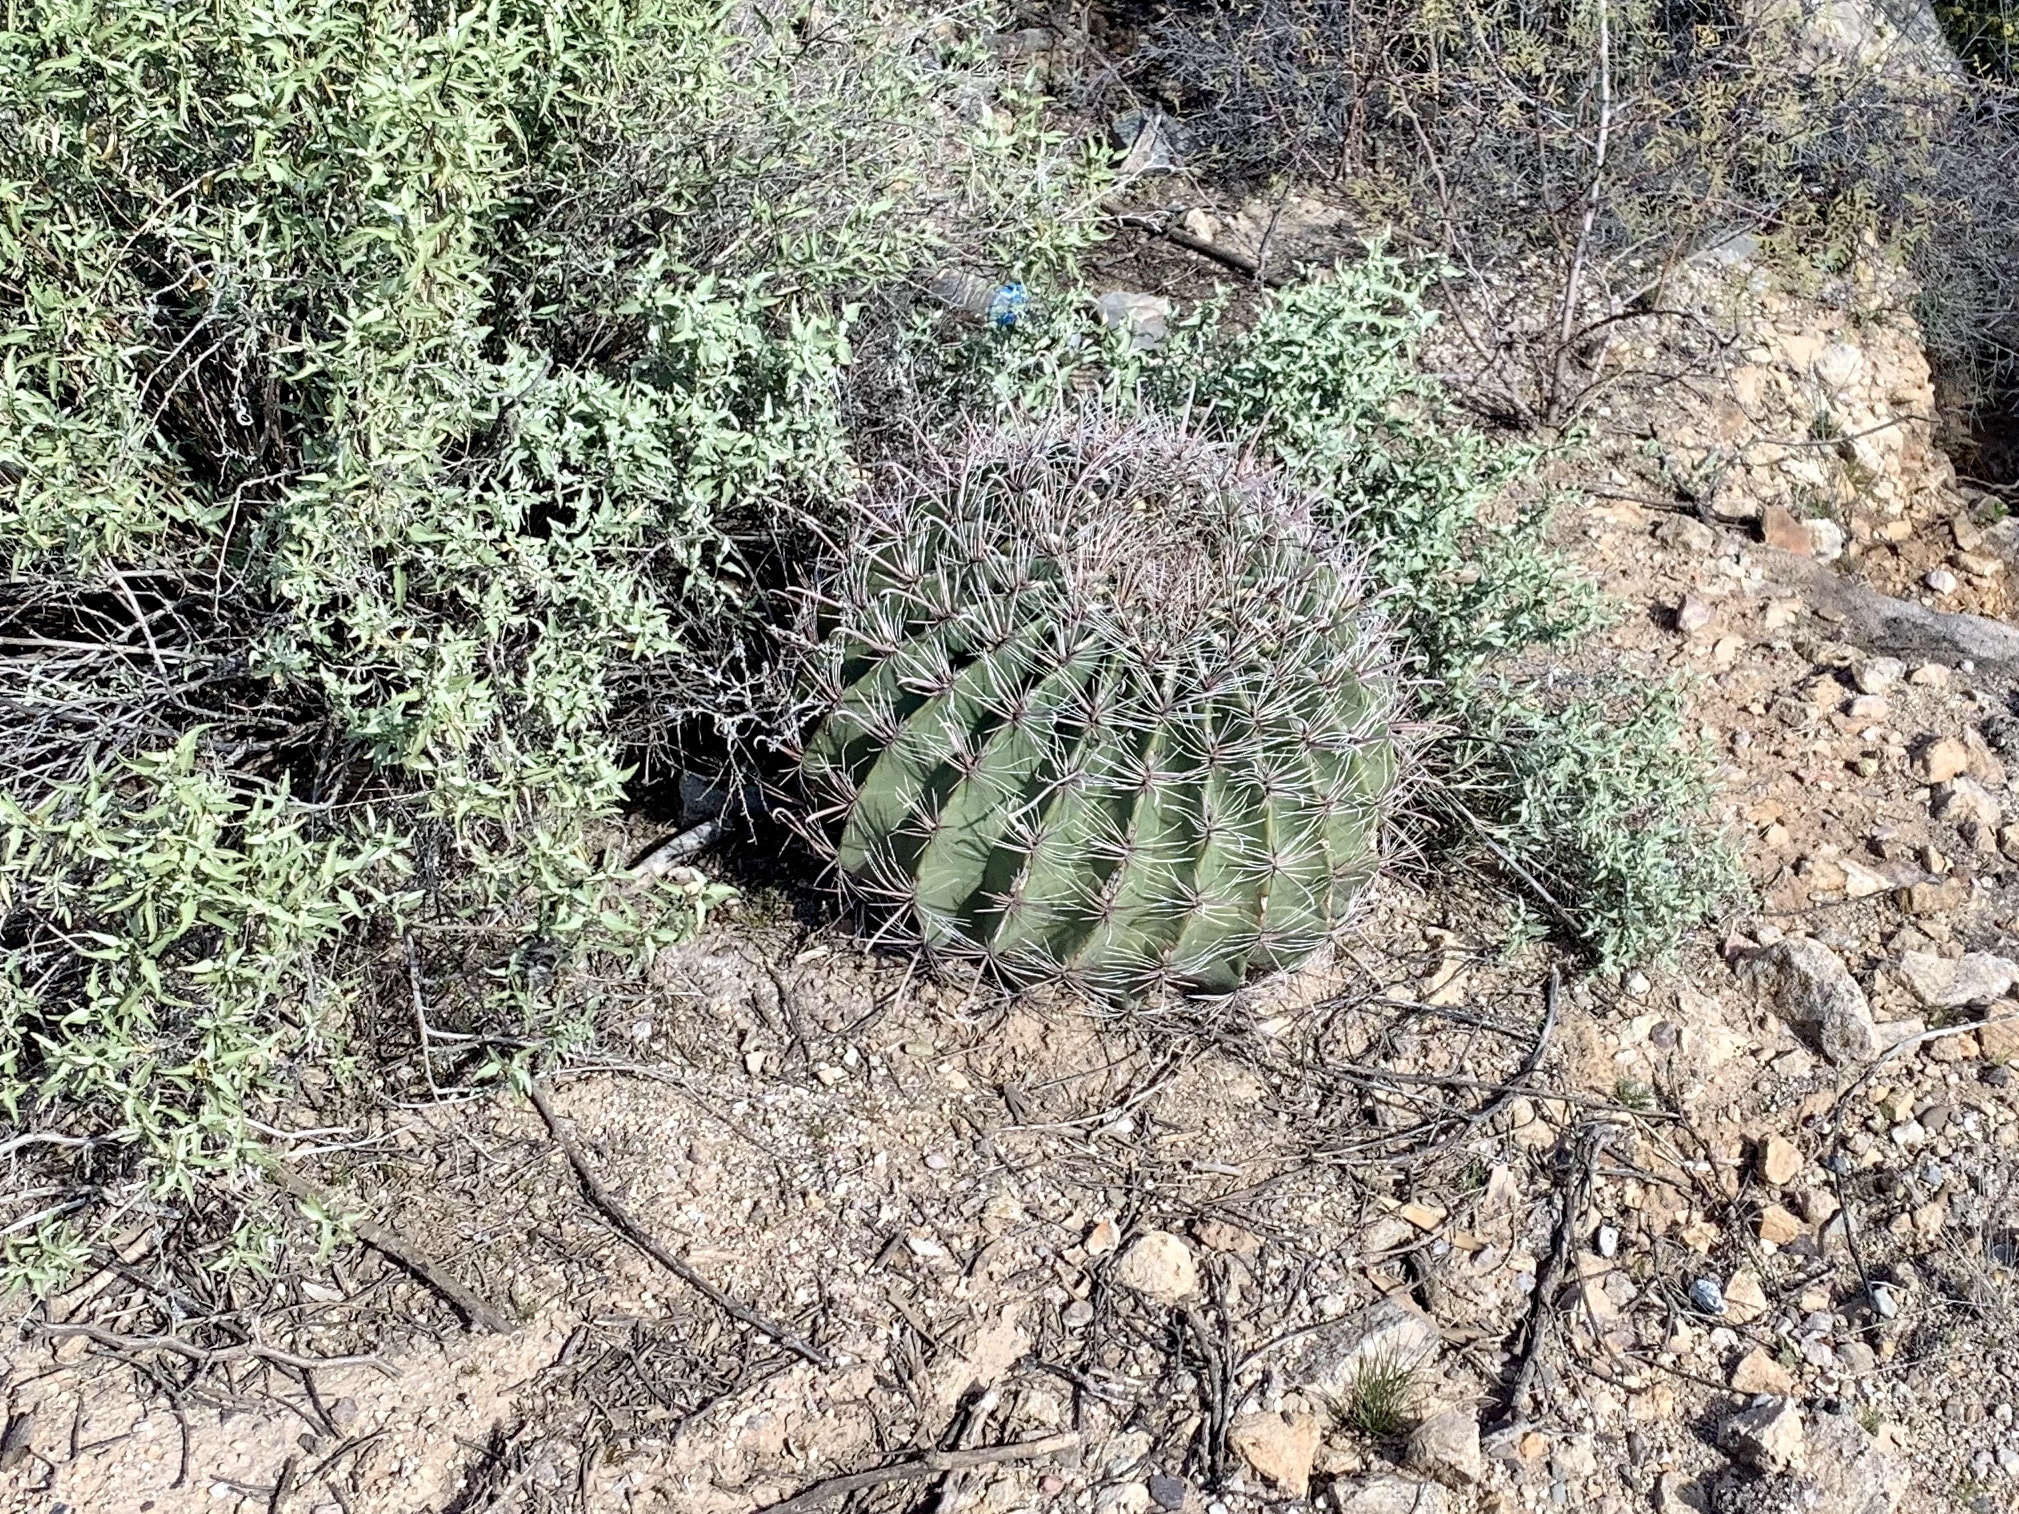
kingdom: Plantae
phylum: Tracheophyta
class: Magnoliopsida
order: Caryophyllales
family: Cactaceae
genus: Ferocactus
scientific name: Ferocactus wislizeni
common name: Candy barrel cactus
